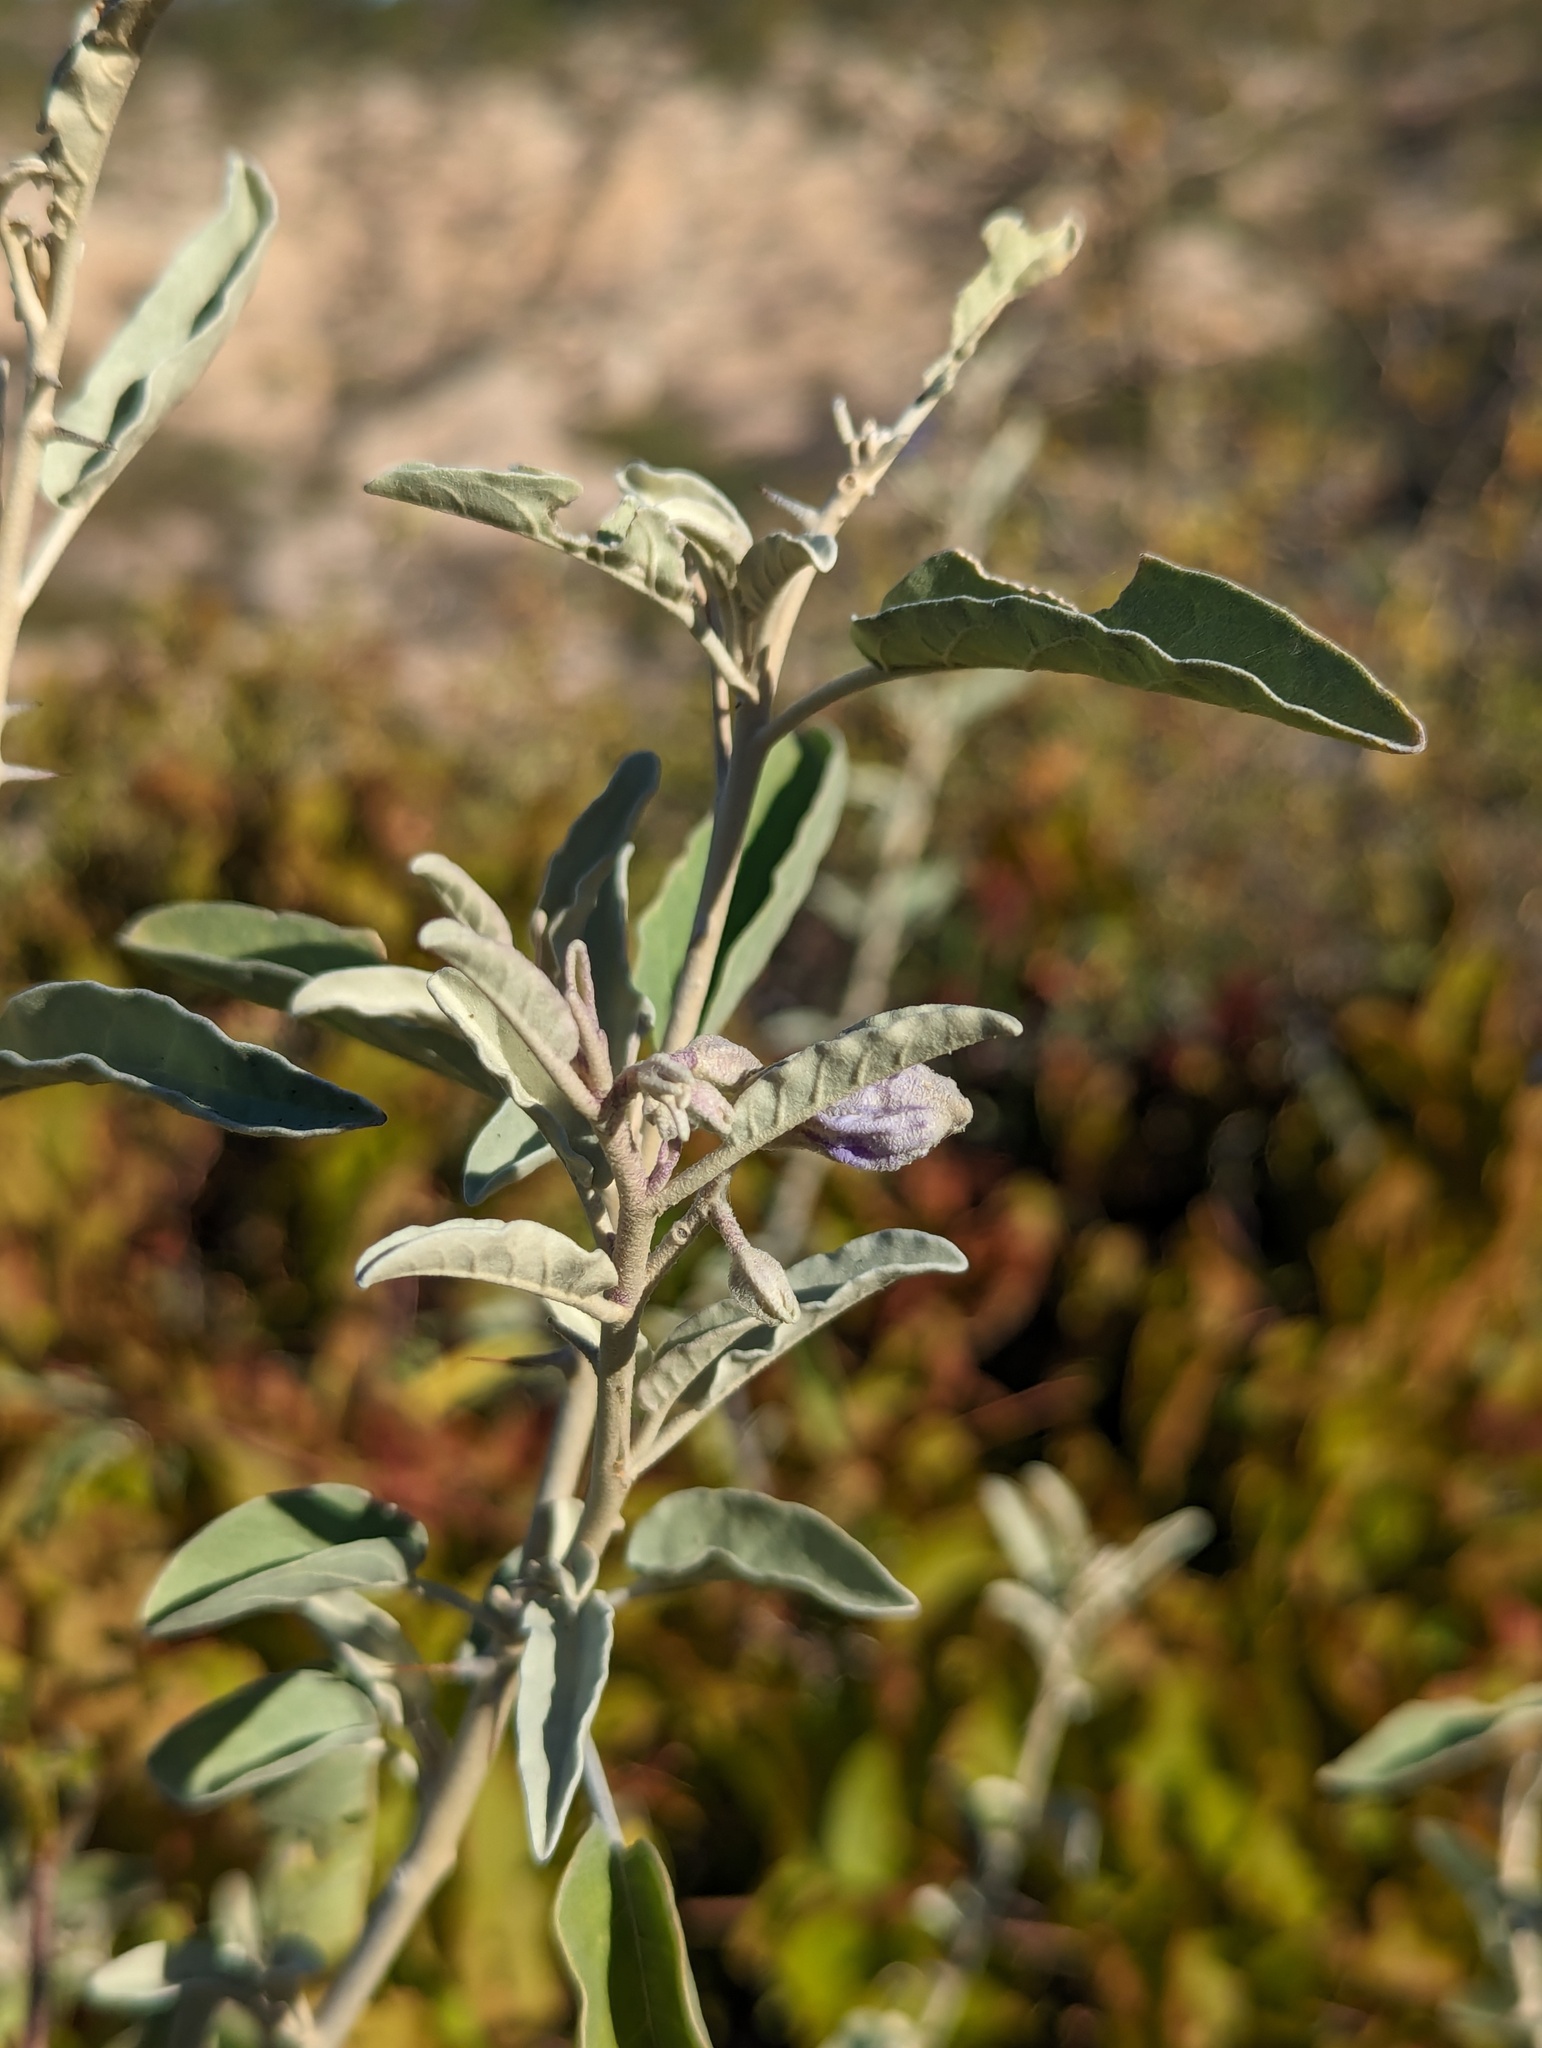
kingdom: Plantae
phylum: Tracheophyta
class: Magnoliopsida
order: Solanales
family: Solanaceae
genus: Solanum
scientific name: Solanum hindsianum
